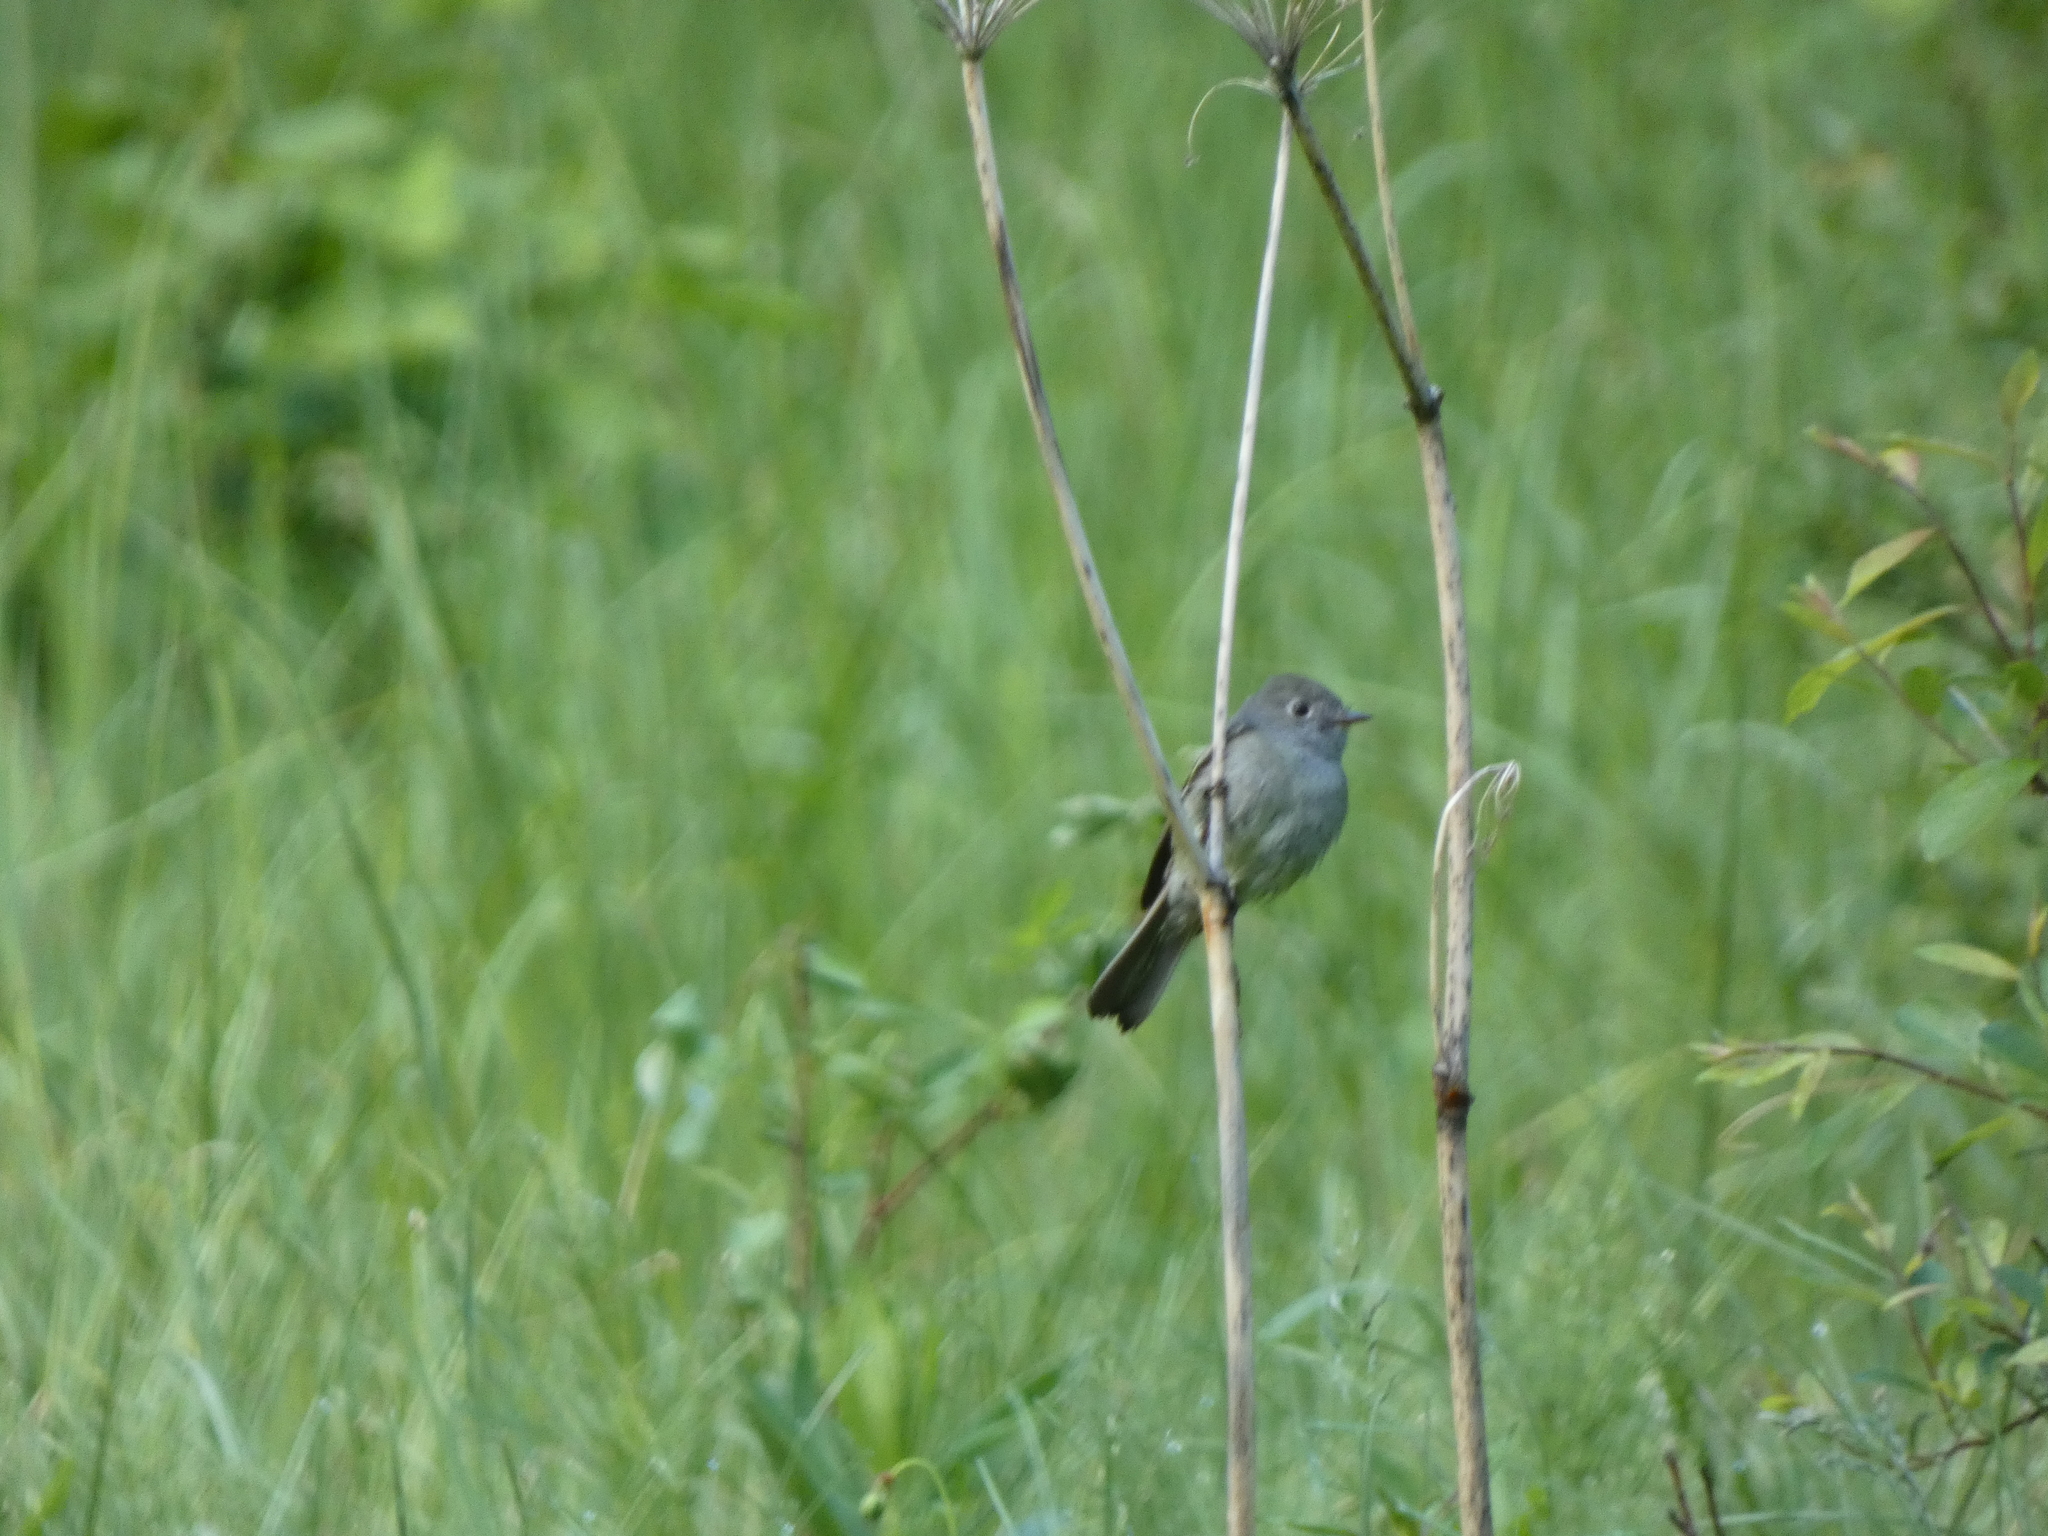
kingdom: Animalia
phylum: Chordata
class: Aves
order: Passeriformes
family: Tyrannidae
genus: Empidonax
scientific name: Empidonax hammondii
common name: Hammond's flycatcher
